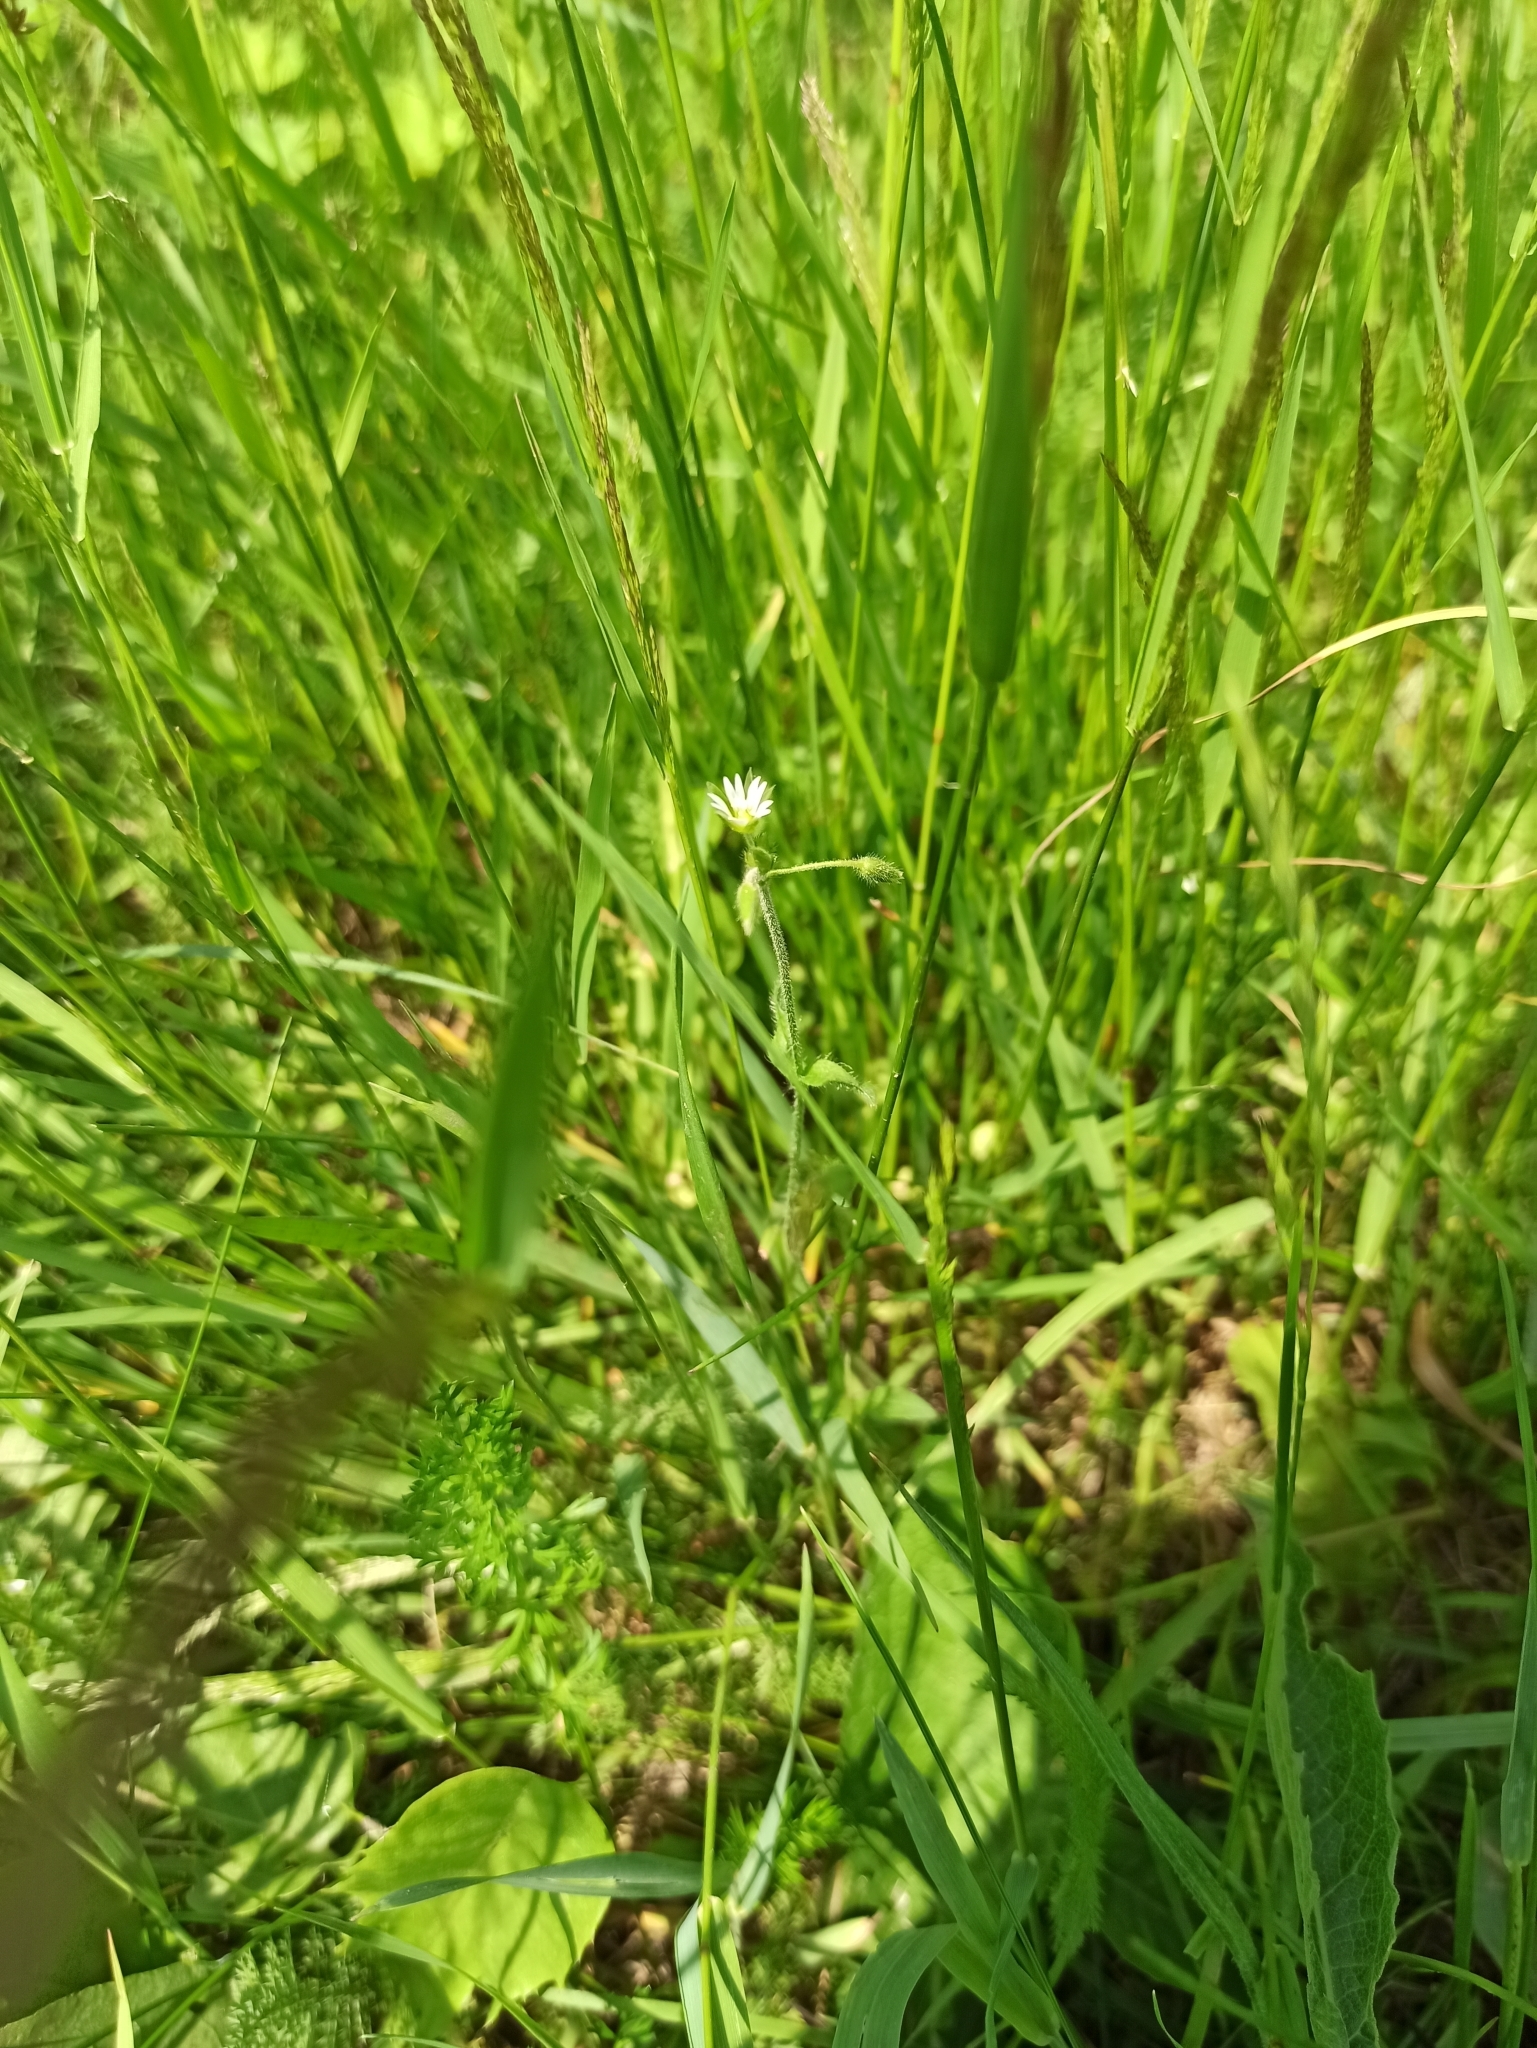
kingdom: Plantae
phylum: Tracheophyta
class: Magnoliopsida
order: Caryophyllales
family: Caryophyllaceae
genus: Stellaria
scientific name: Stellaria graminea
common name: Grass-like starwort
